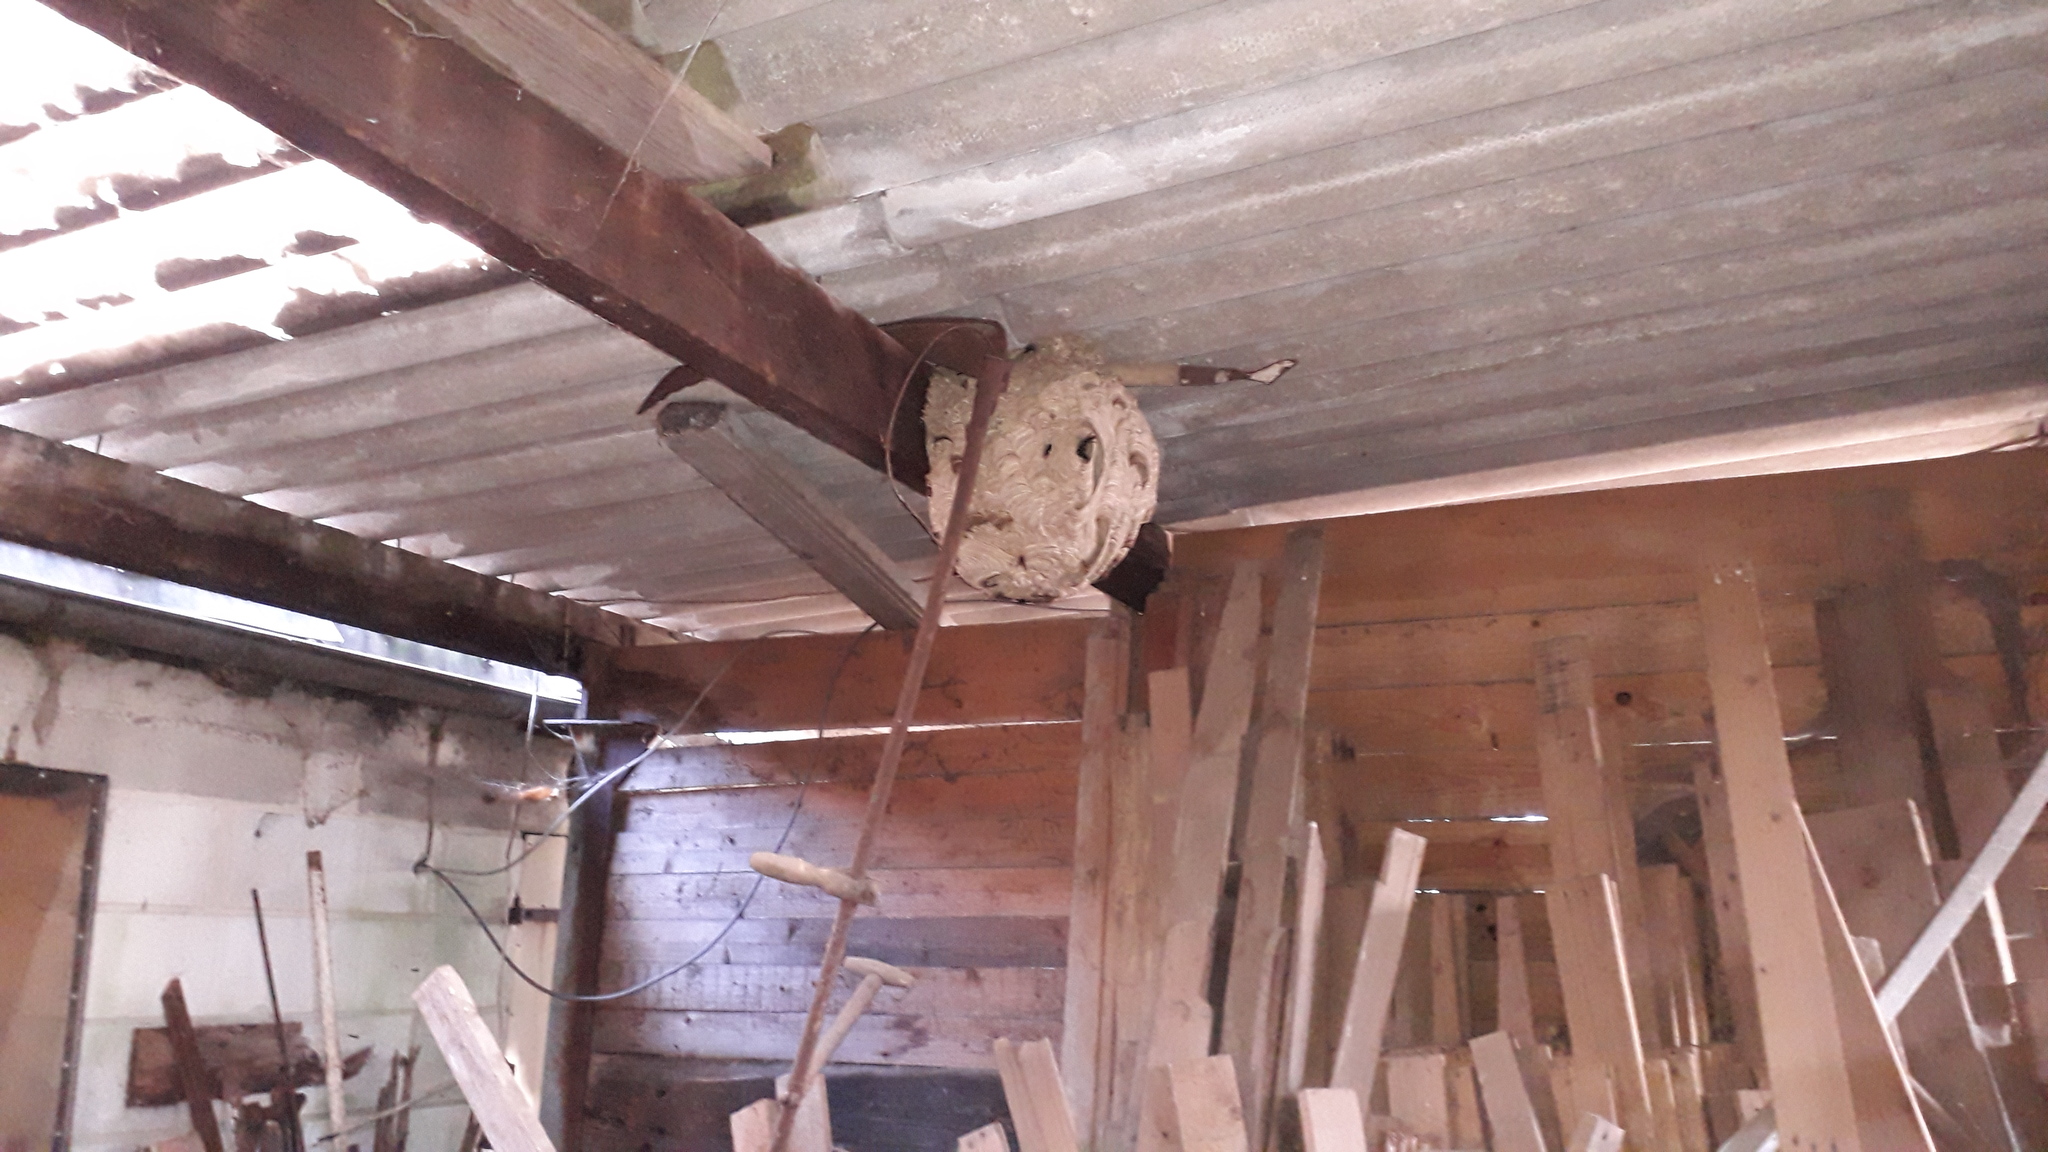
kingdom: Animalia
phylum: Arthropoda
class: Insecta
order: Hymenoptera
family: Vespidae
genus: Vespa
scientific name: Vespa velutina
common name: Asian hornet
